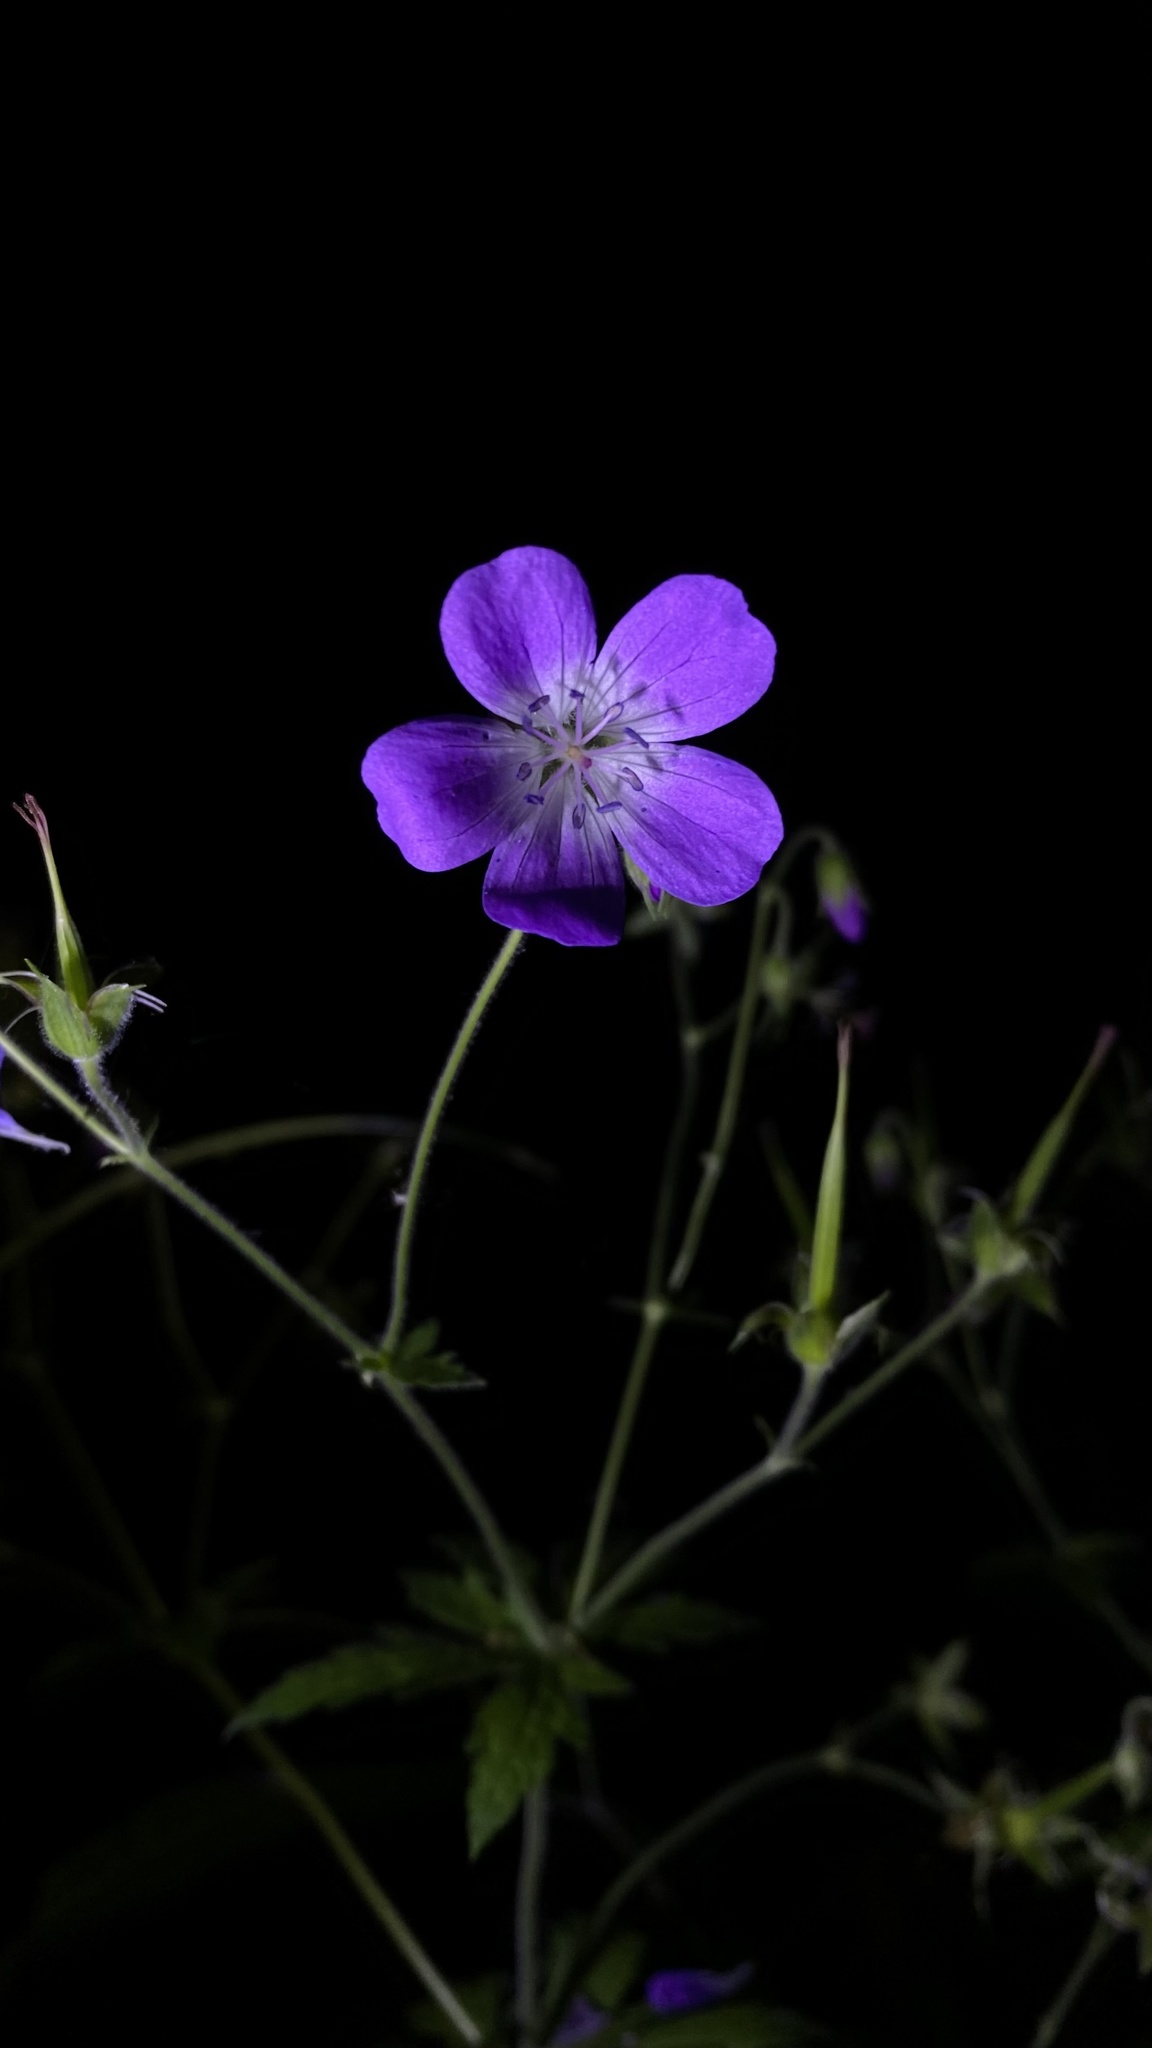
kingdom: Plantae
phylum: Tracheophyta
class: Magnoliopsida
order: Geraniales
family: Geraniaceae
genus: Geranium
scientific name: Geranium sylvaticum
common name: Wood crane's-bill
